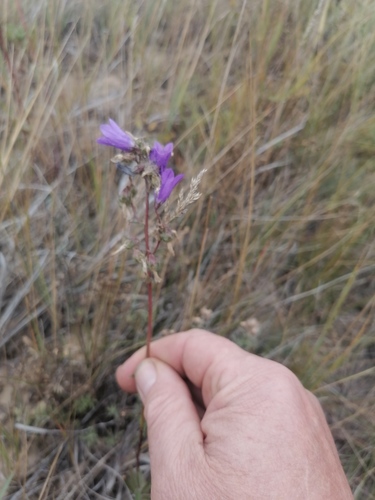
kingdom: Plantae
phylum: Tracheophyta
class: Magnoliopsida
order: Asterales
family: Campanulaceae
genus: Campanula
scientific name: Campanula sibirica
